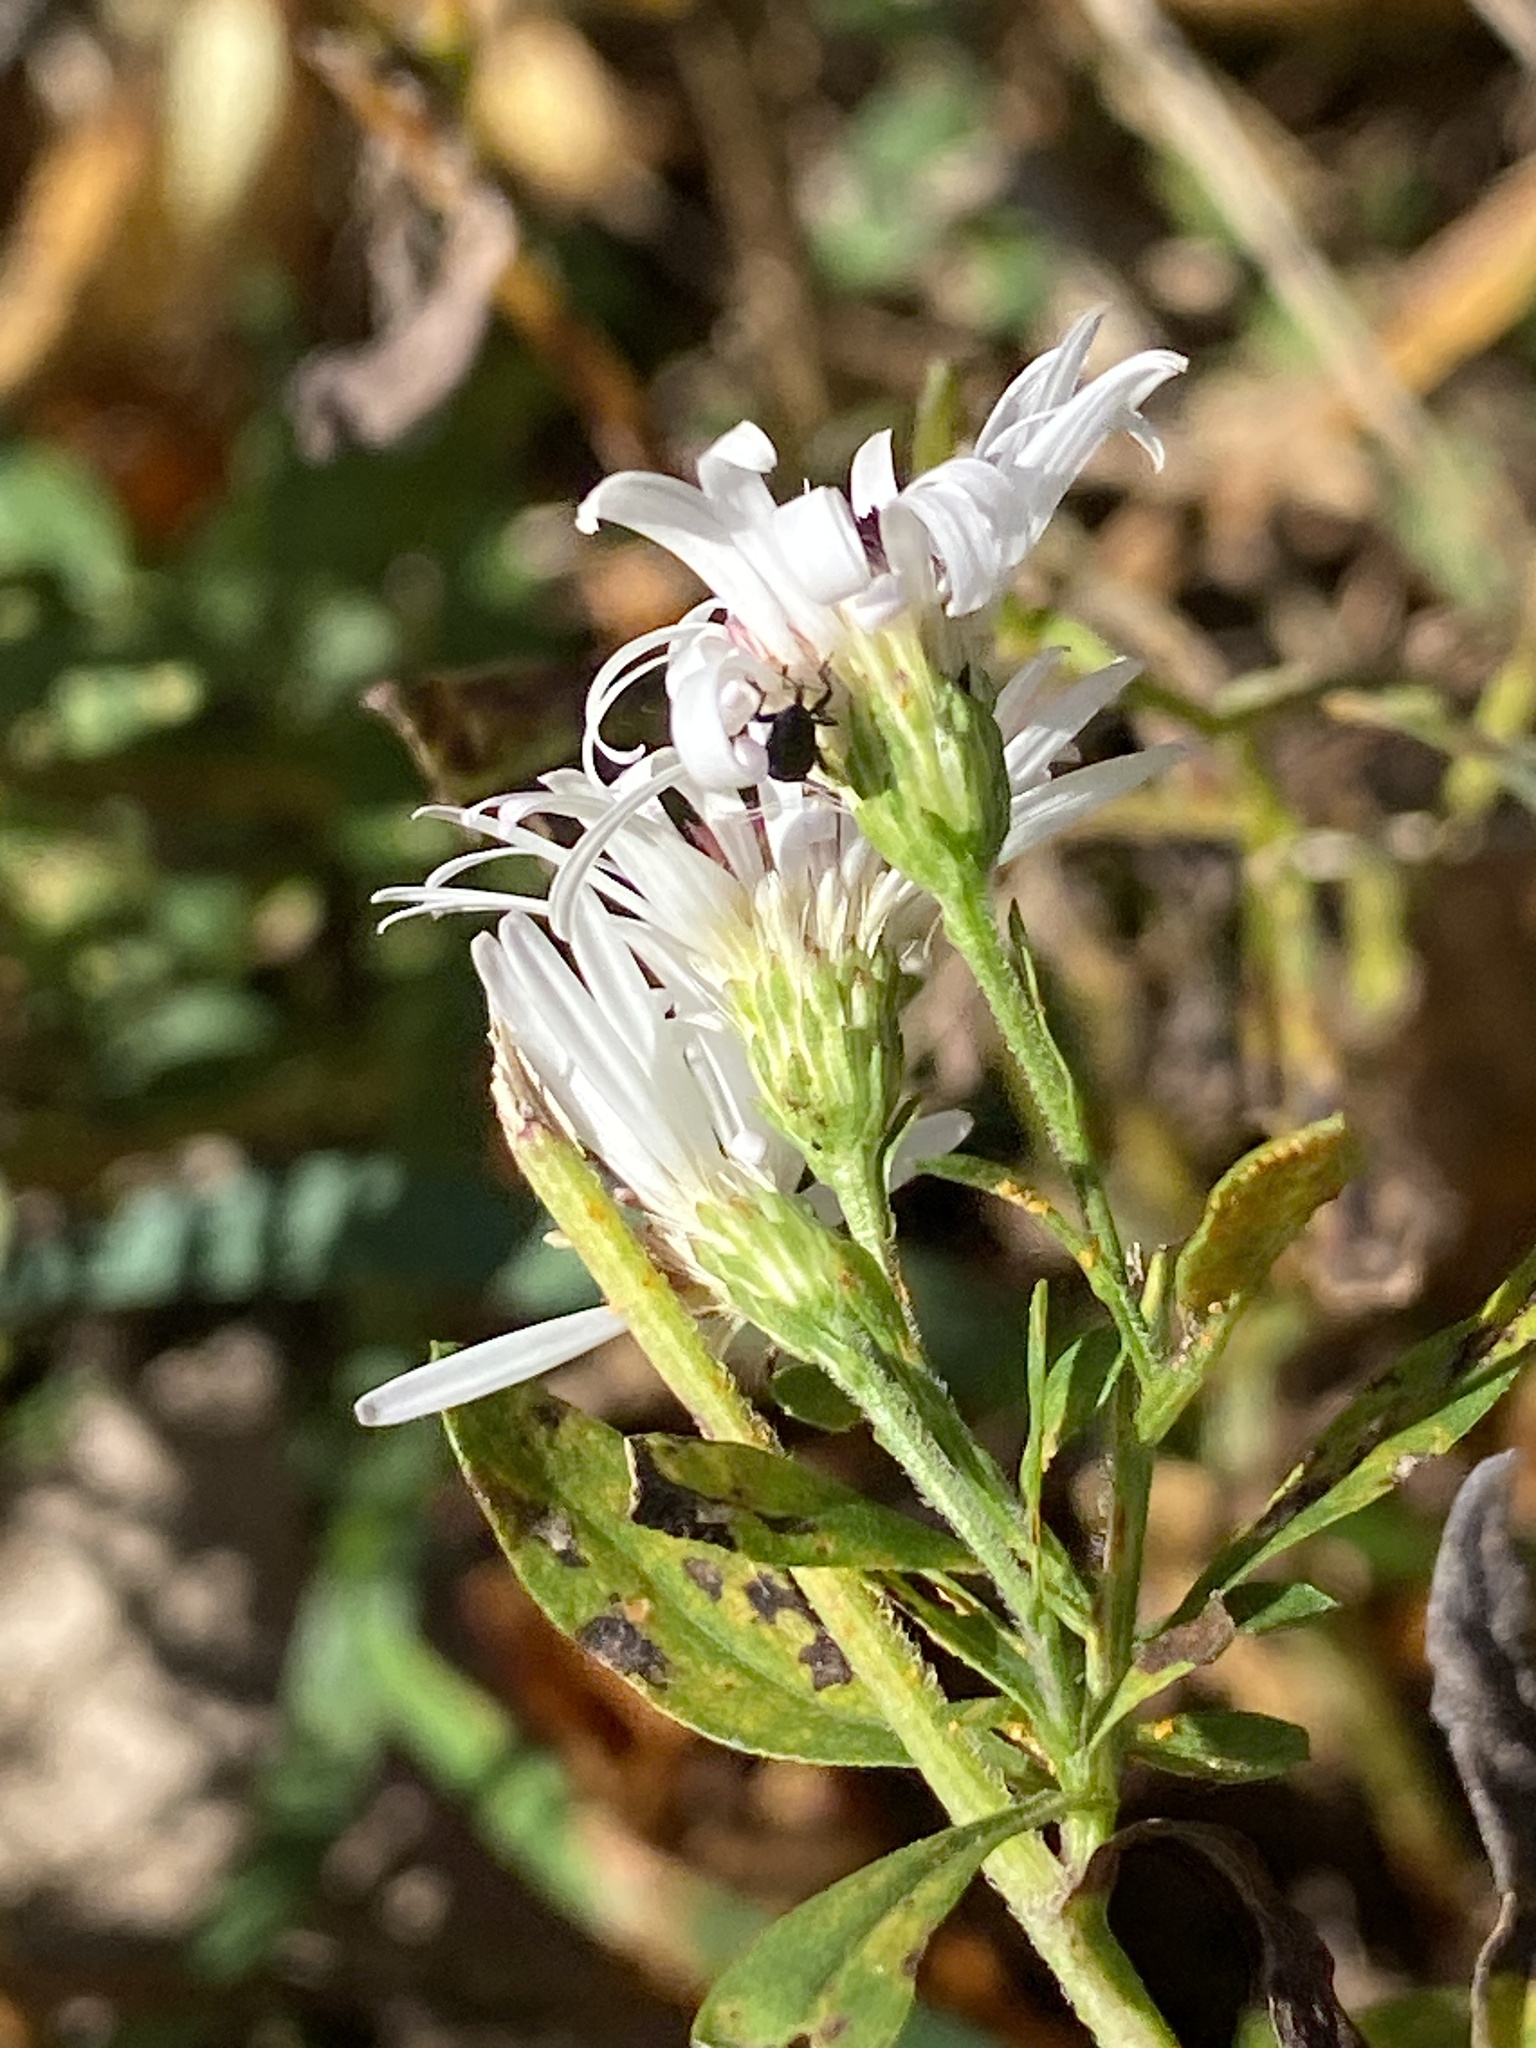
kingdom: Plantae
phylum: Tracheophyta
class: Magnoliopsida
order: Asterales
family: Asteraceae
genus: Symphyotrichum
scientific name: Symphyotrichum lanceolatum
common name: Panicled aster
